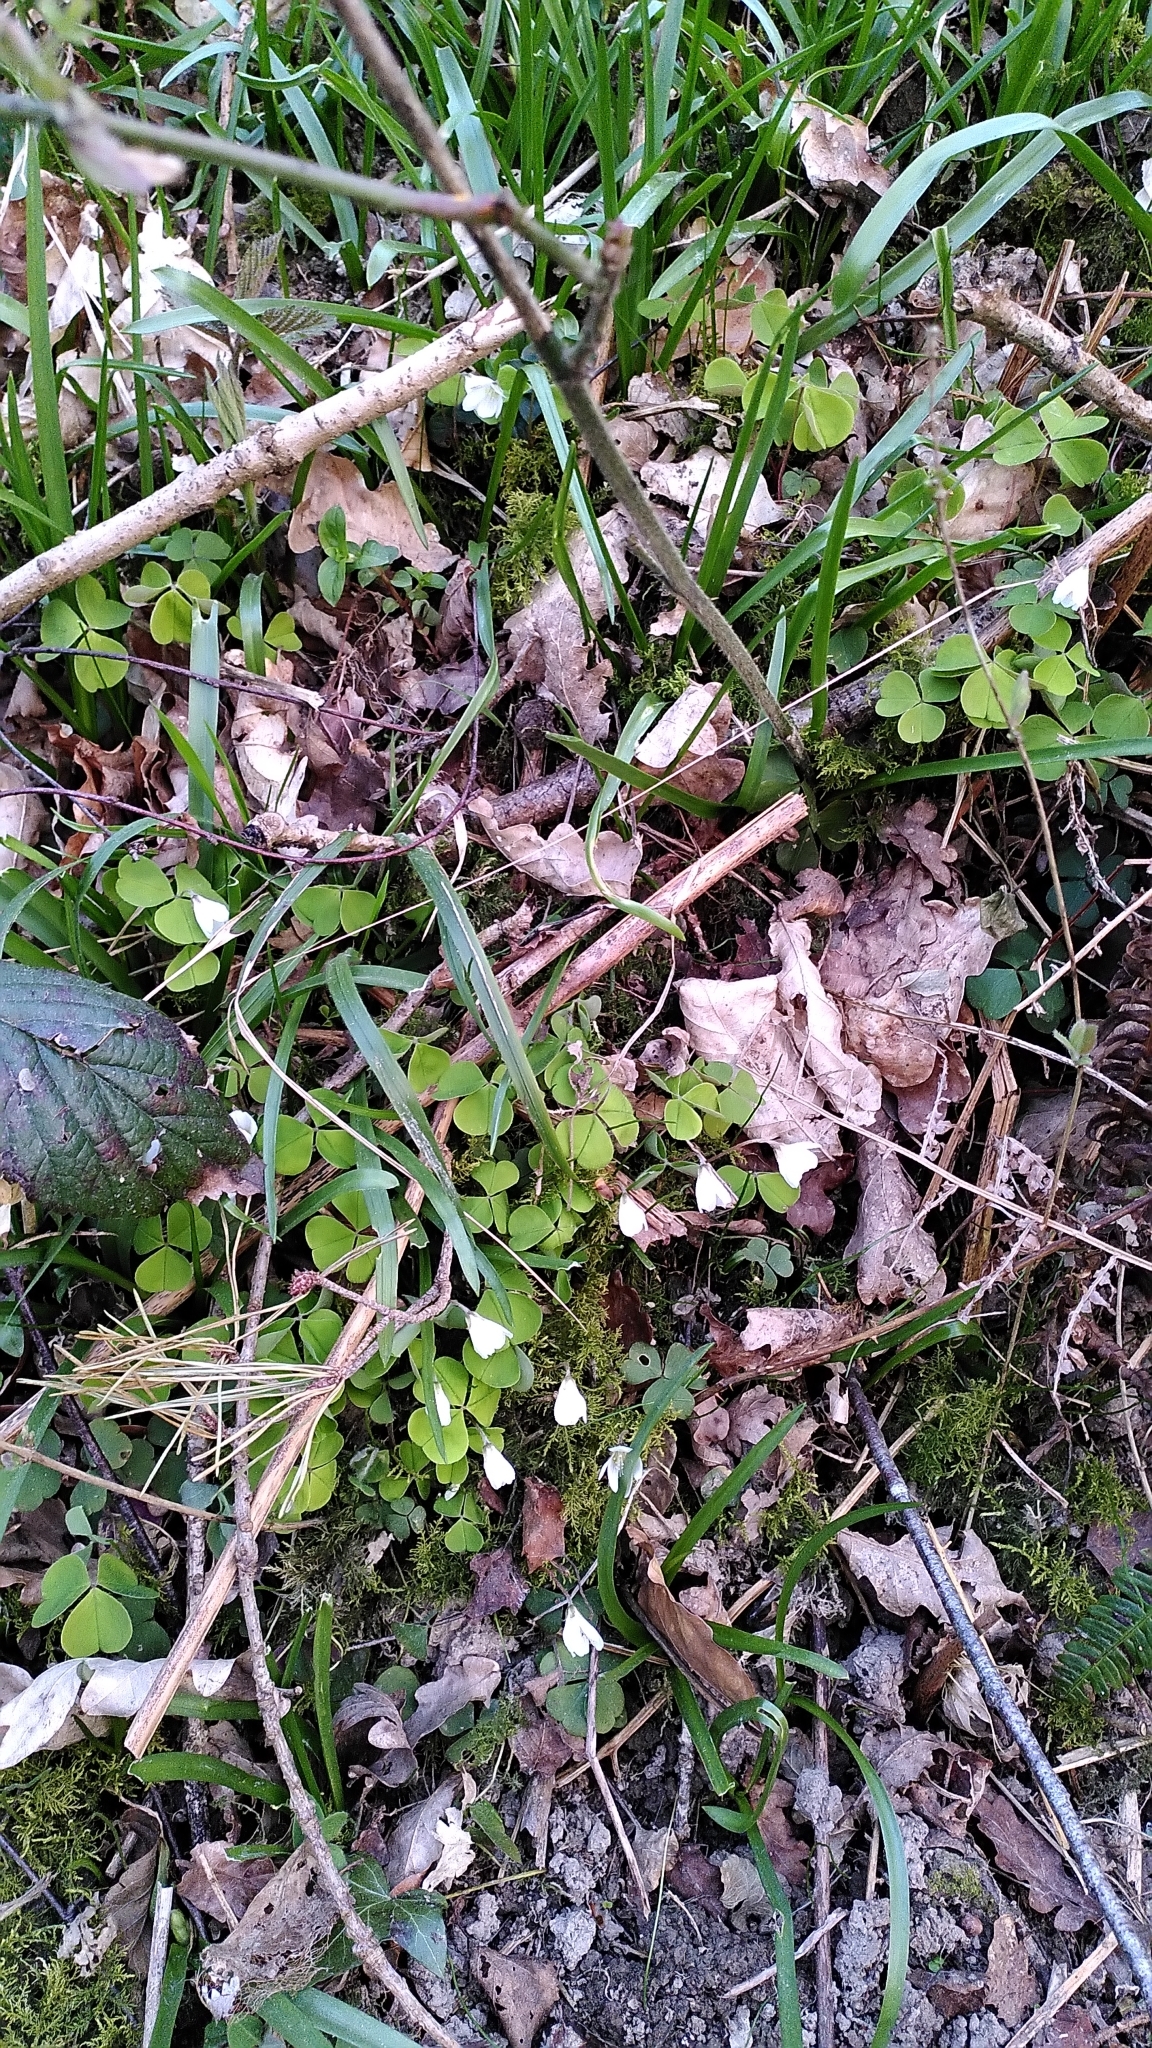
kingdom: Plantae
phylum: Tracheophyta
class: Magnoliopsida
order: Oxalidales
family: Oxalidaceae
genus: Oxalis
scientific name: Oxalis acetosella
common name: Wood-sorrel
